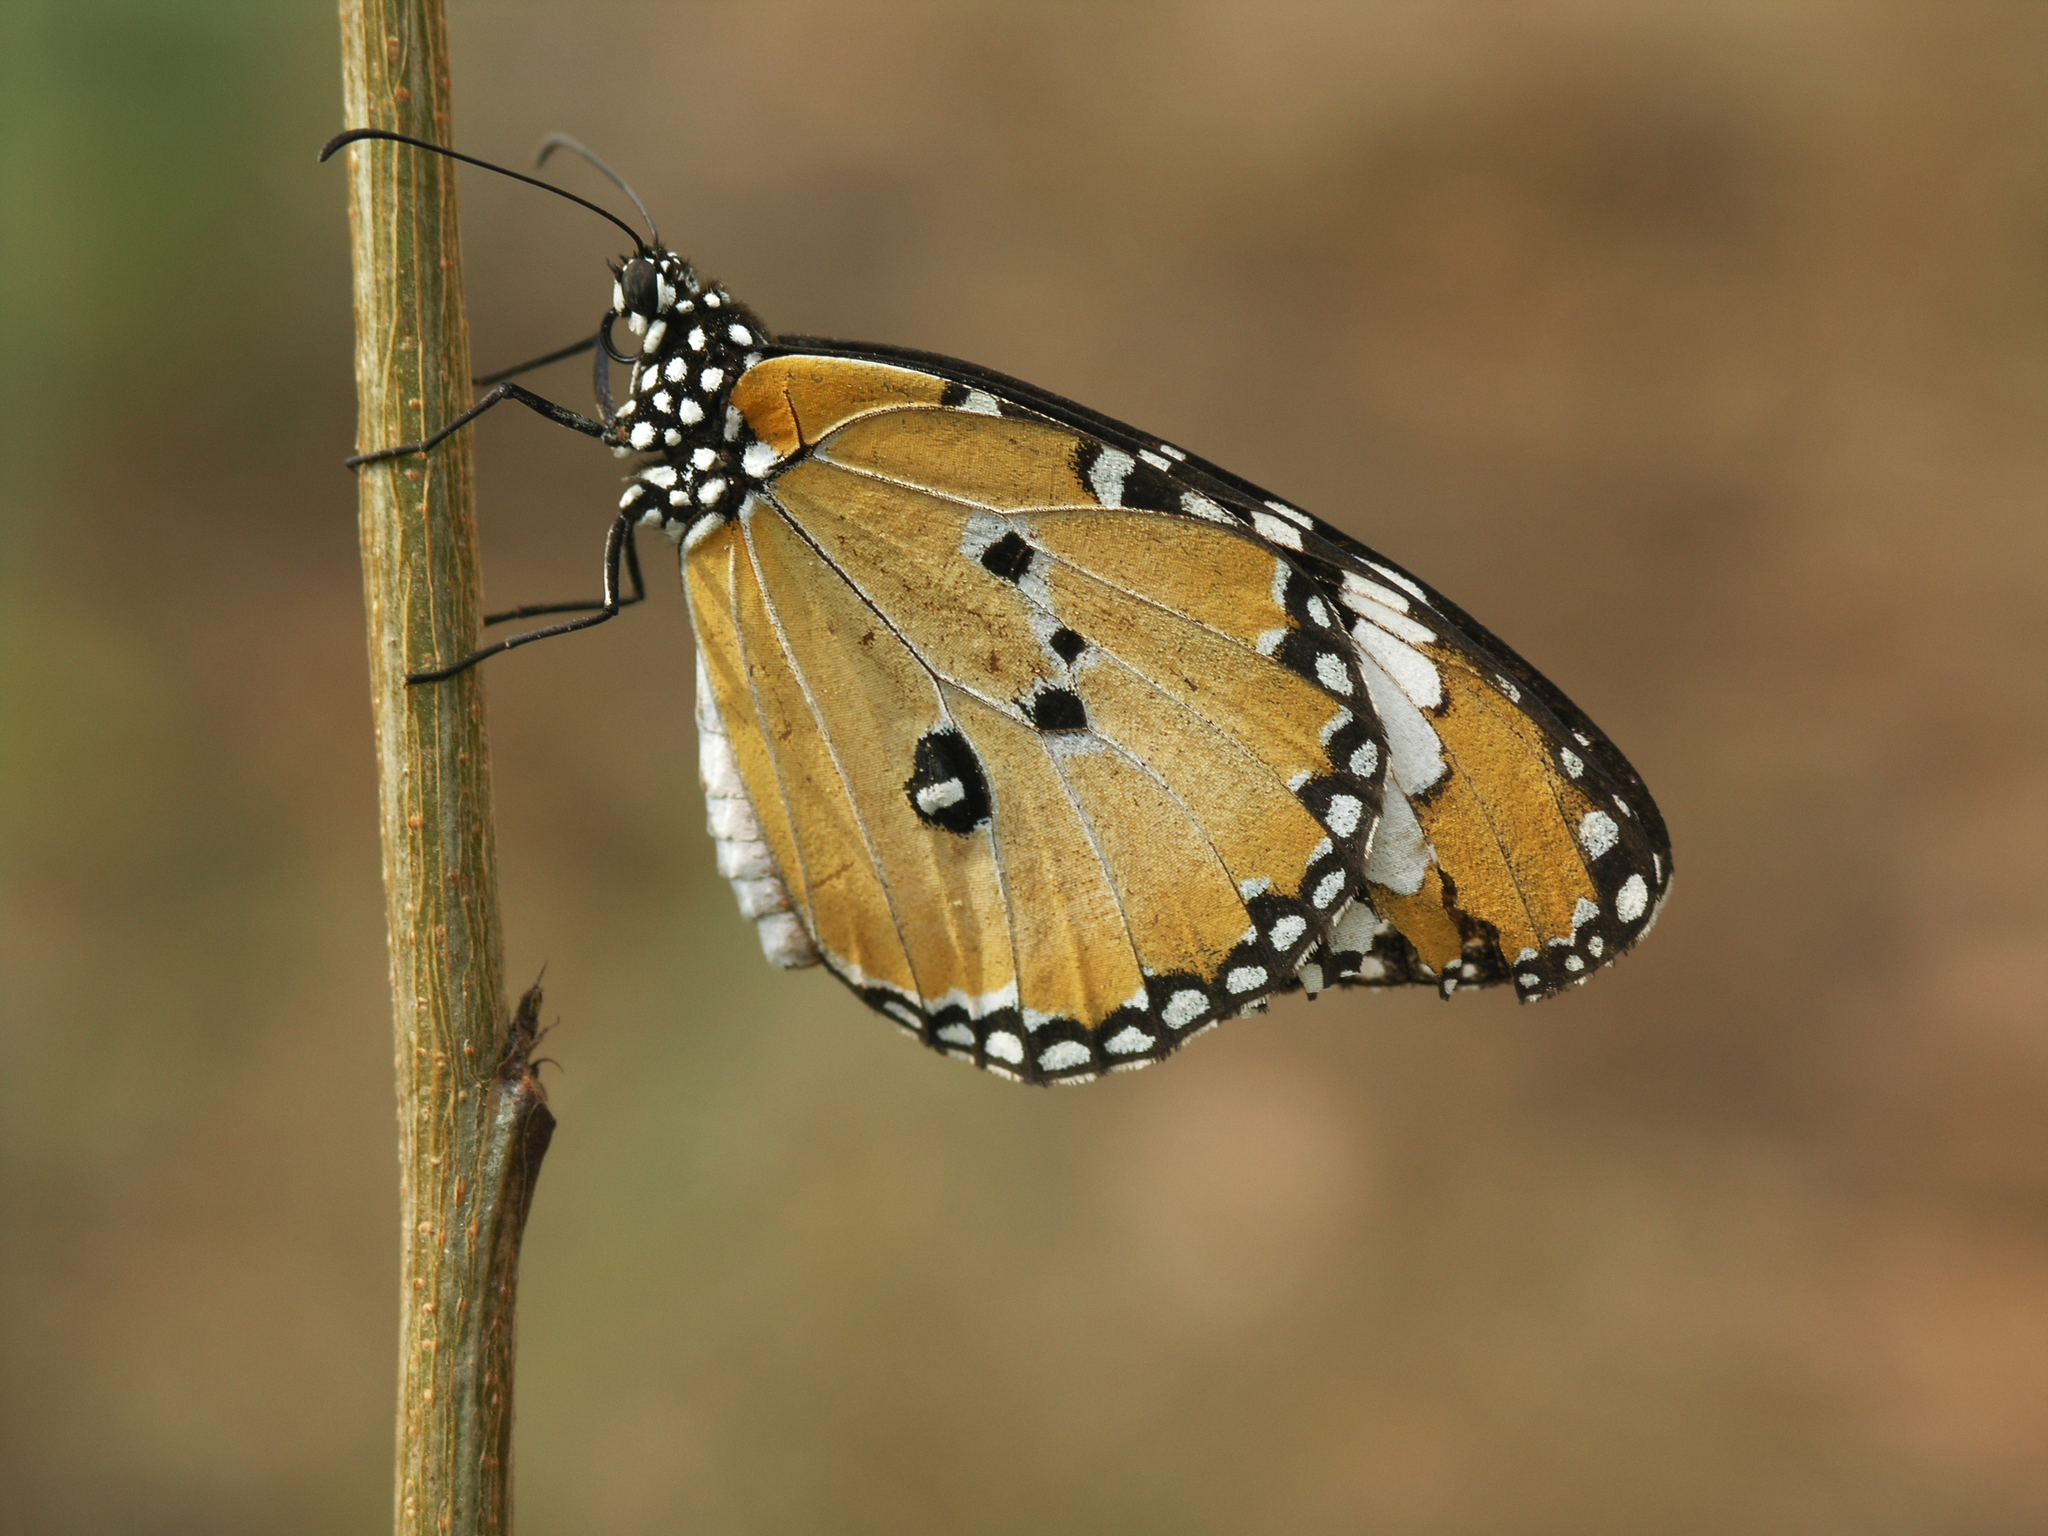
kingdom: Animalia
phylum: Arthropoda
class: Insecta
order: Lepidoptera
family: Nymphalidae
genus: Danaus
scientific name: Danaus chrysippus
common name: Plain tiger
